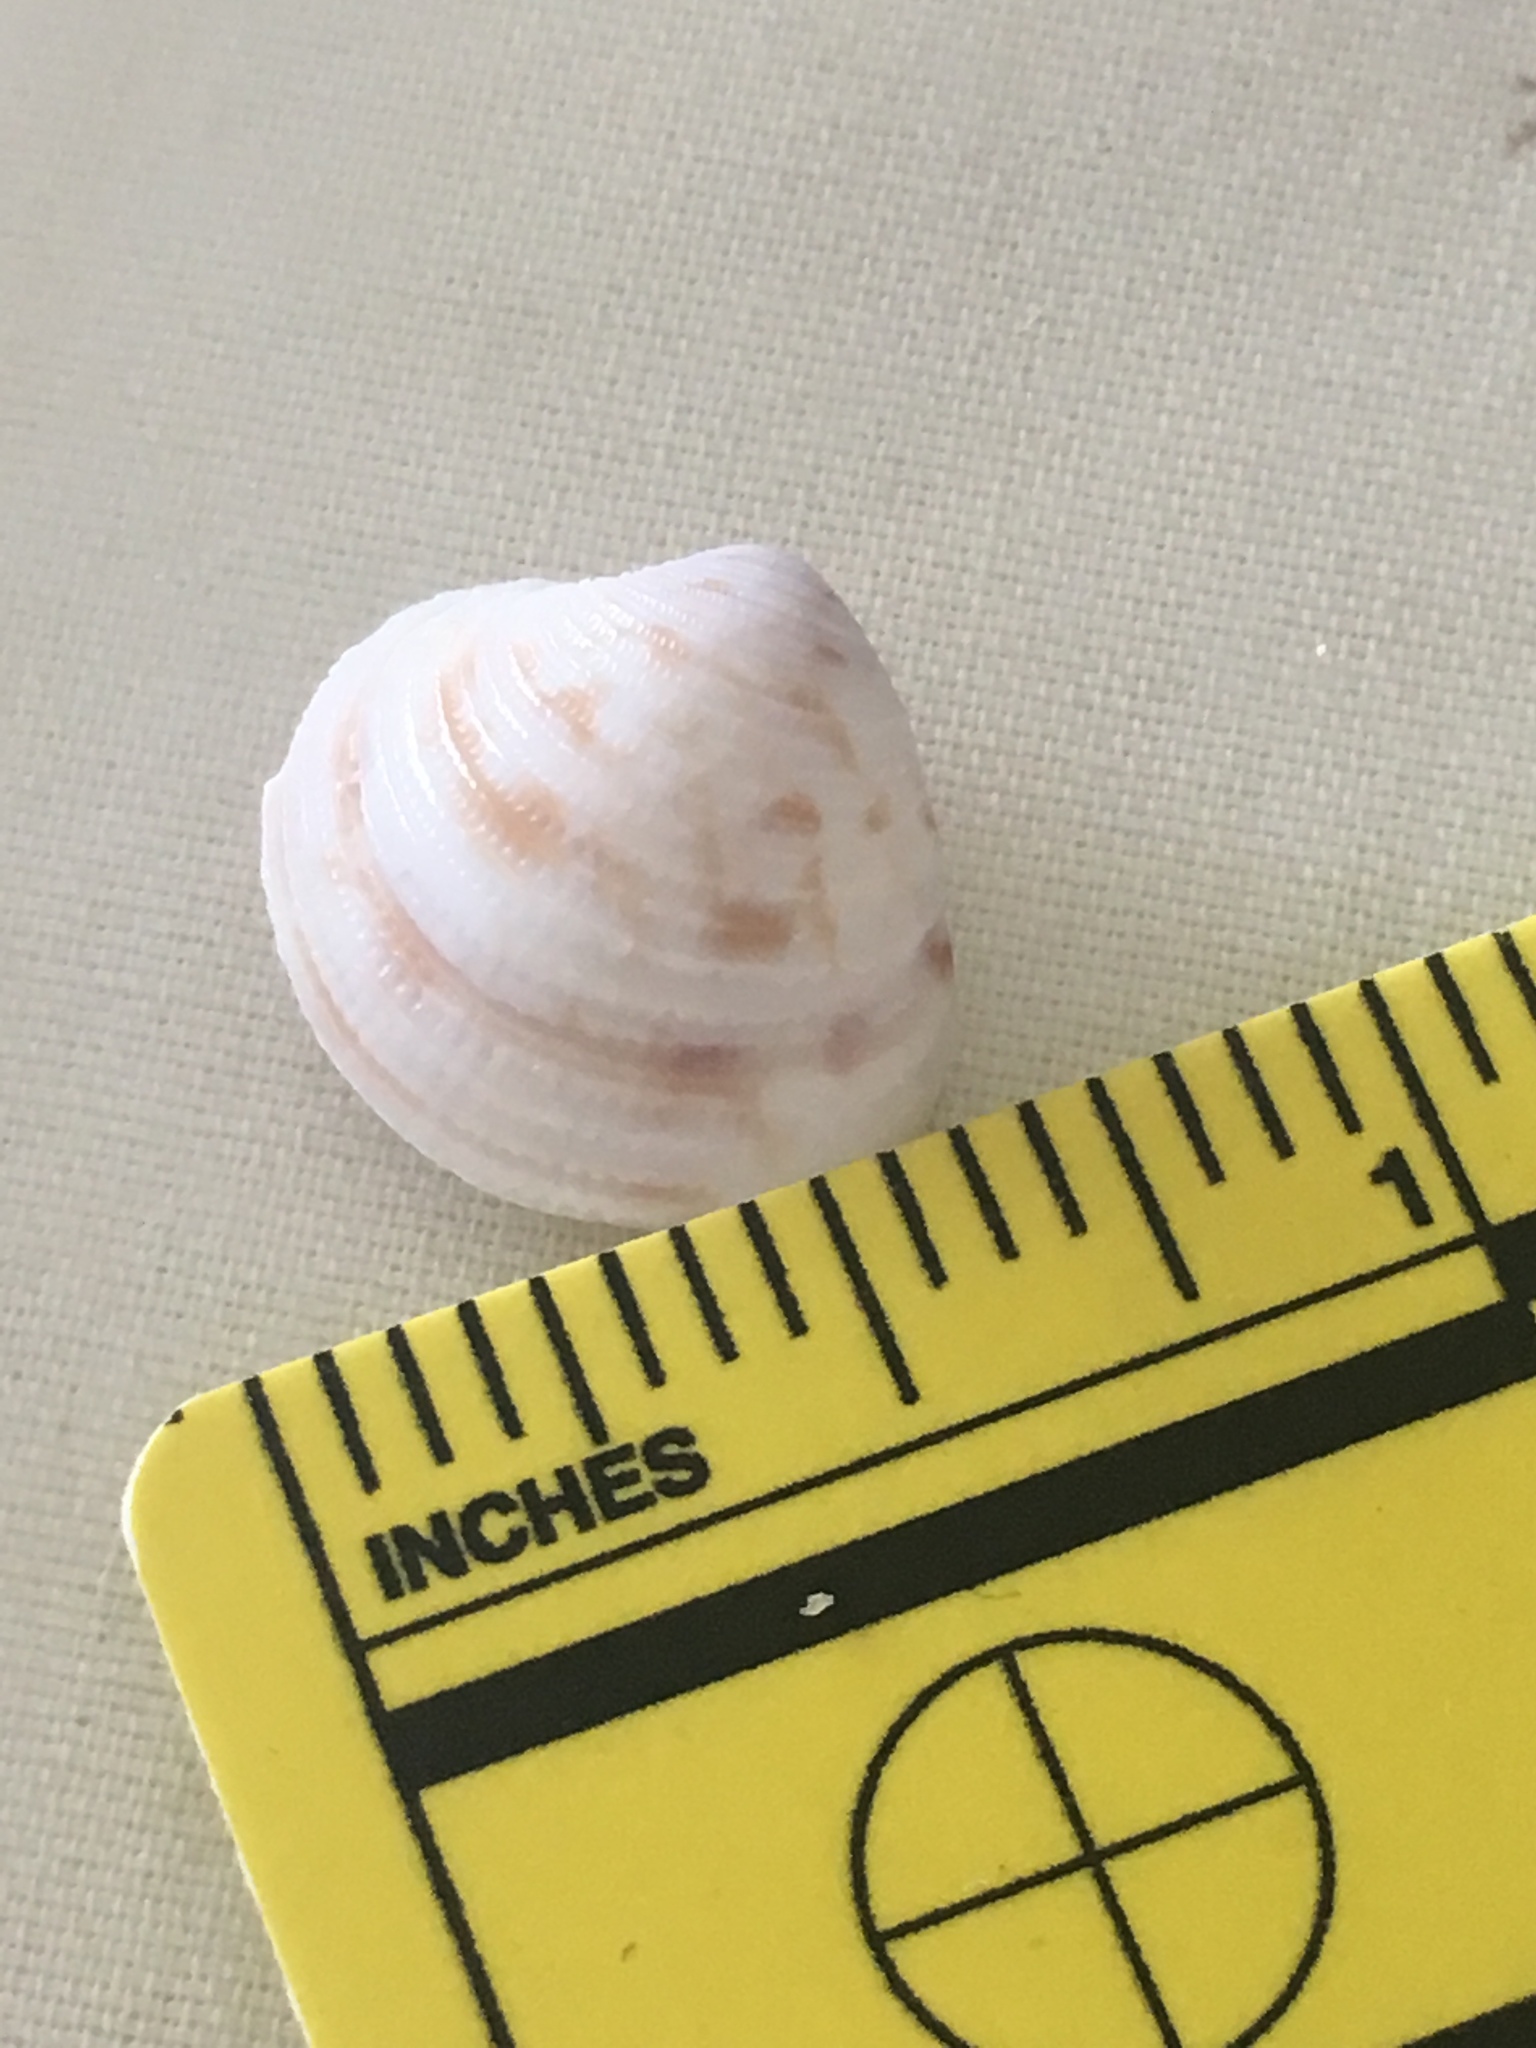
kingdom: Animalia
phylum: Mollusca
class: Bivalvia
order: Venerida
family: Veneridae
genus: Chionopsis
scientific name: Chionopsis intapurpurea
